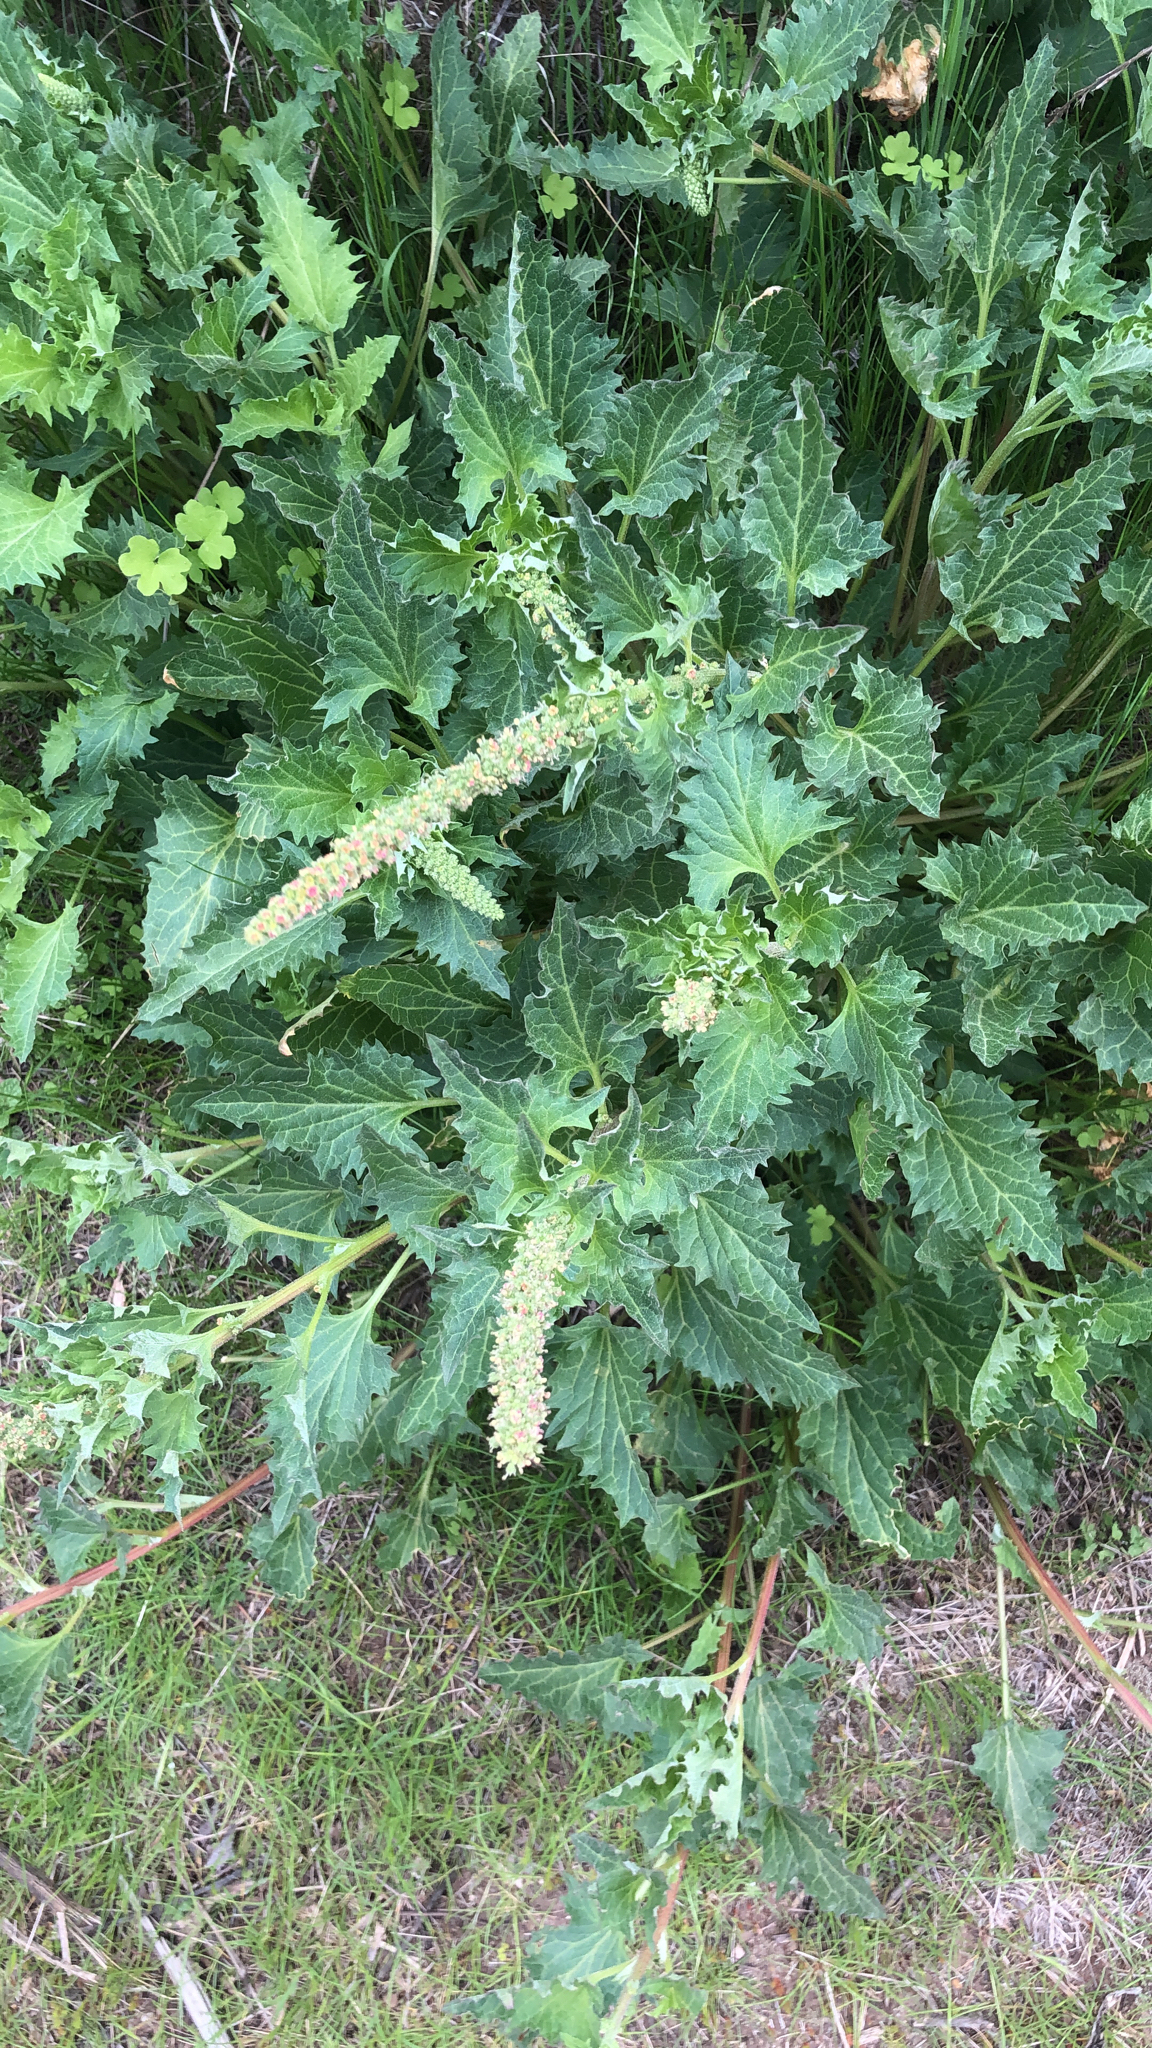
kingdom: Plantae
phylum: Tracheophyta
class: Magnoliopsida
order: Caryophyllales
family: Amaranthaceae
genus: Blitum
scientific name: Blitum californicum
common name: California goosefoot
